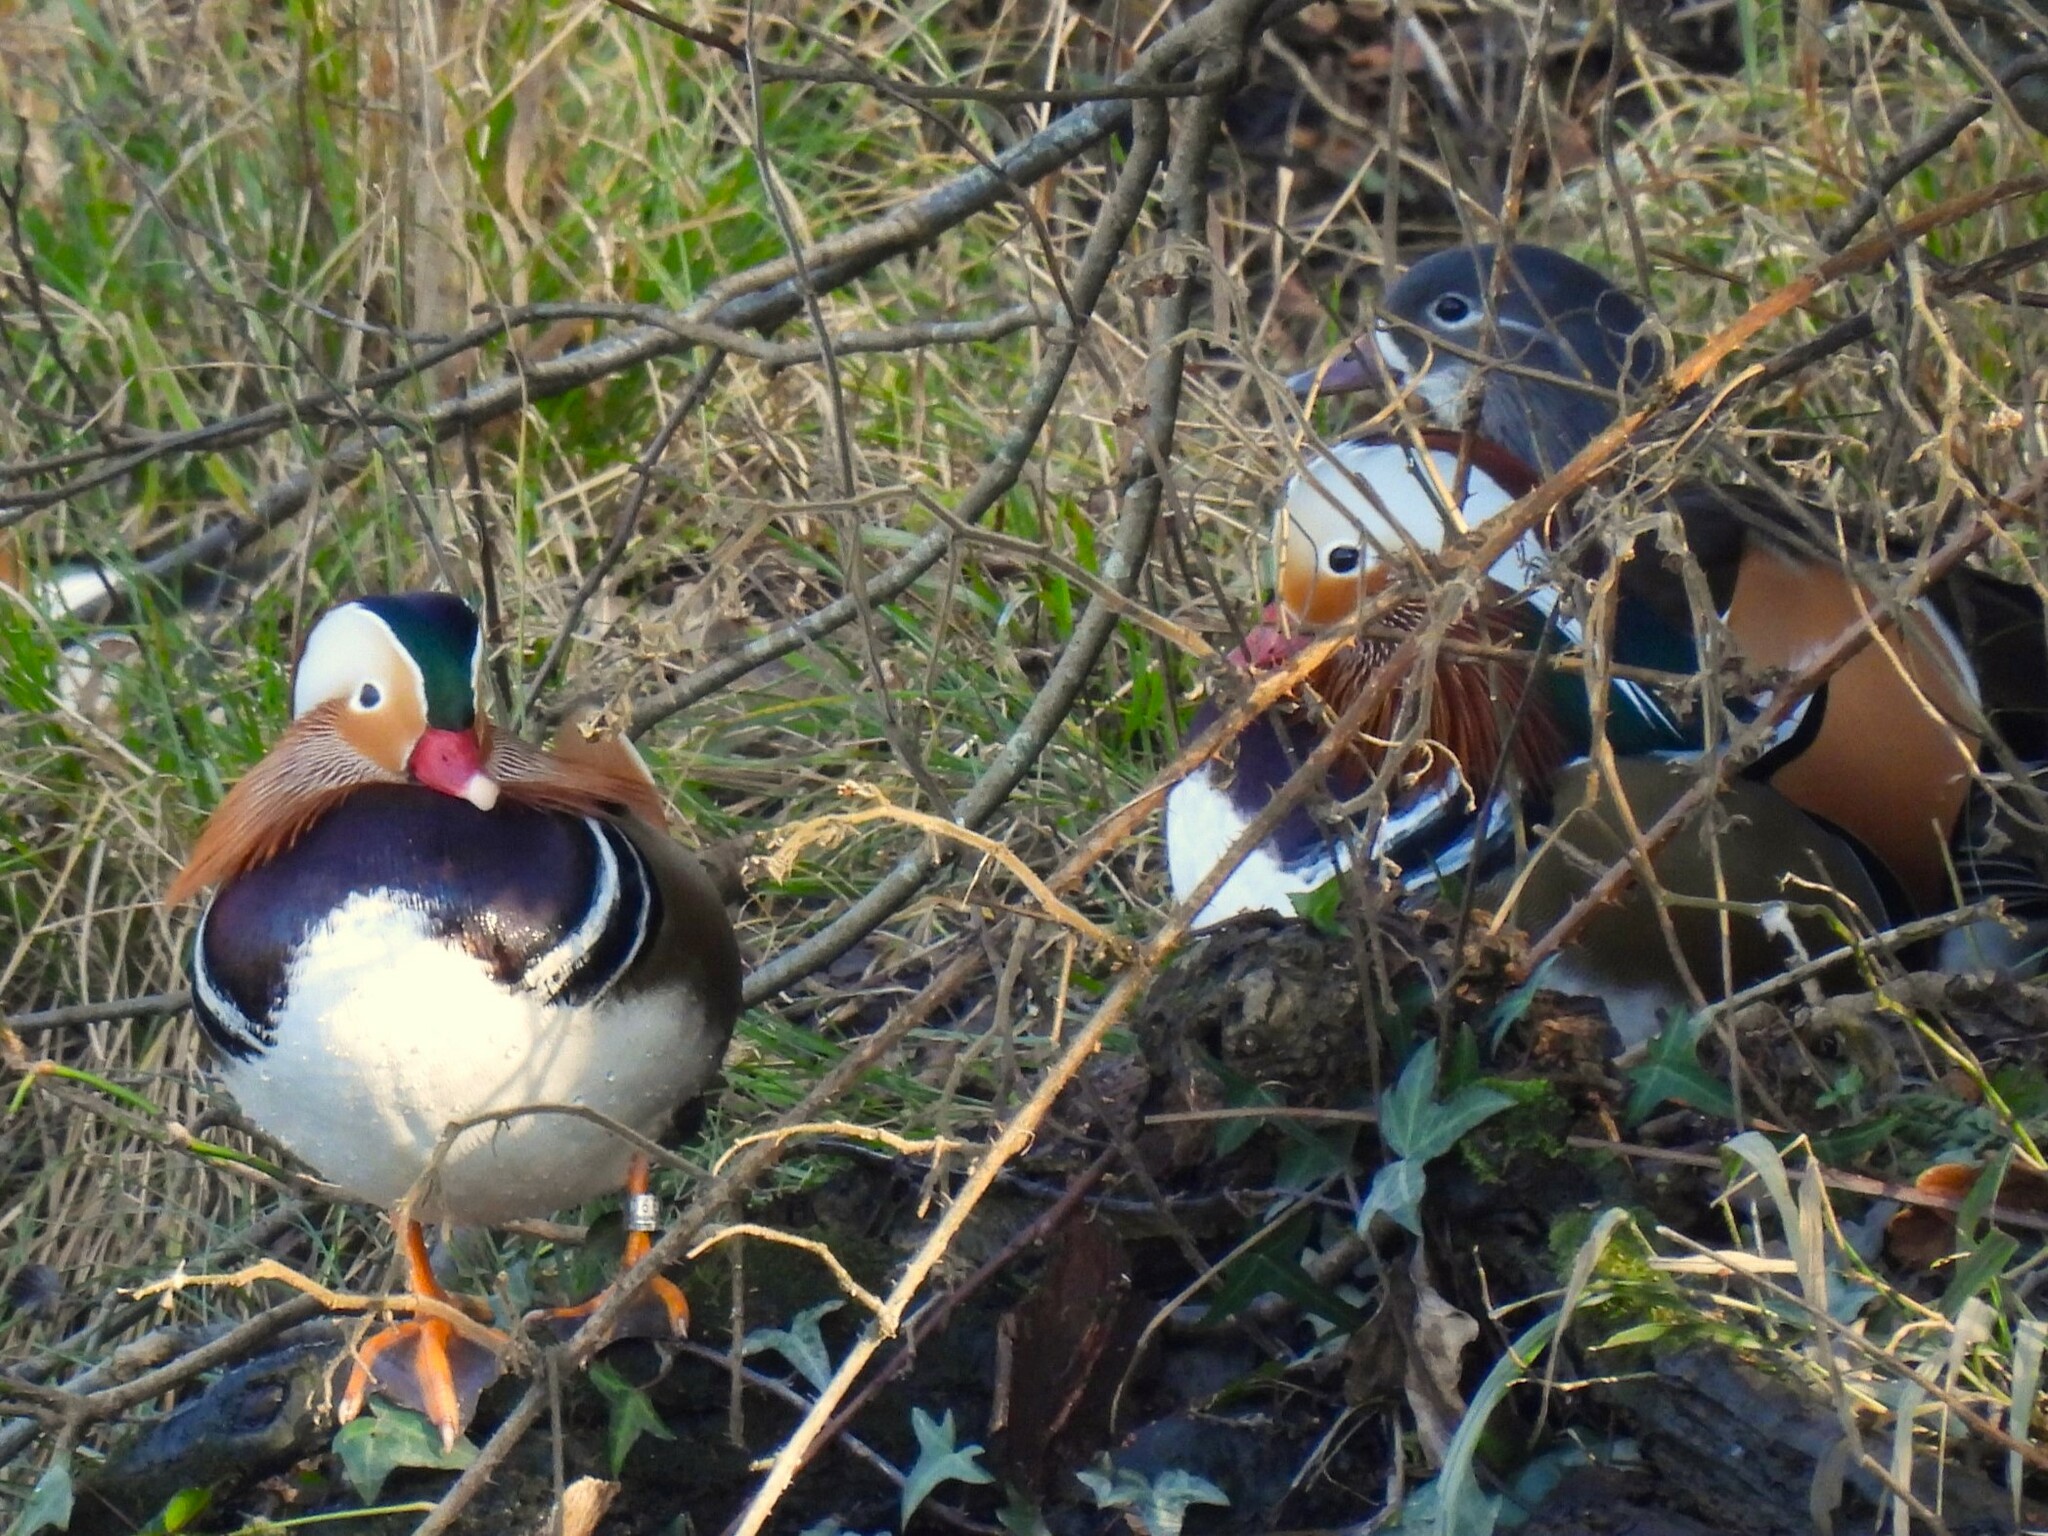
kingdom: Animalia
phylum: Chordata
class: Aves
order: Anseriformes
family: Anatidae
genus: Aix
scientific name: Aix galericulata
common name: Mandarin duck
